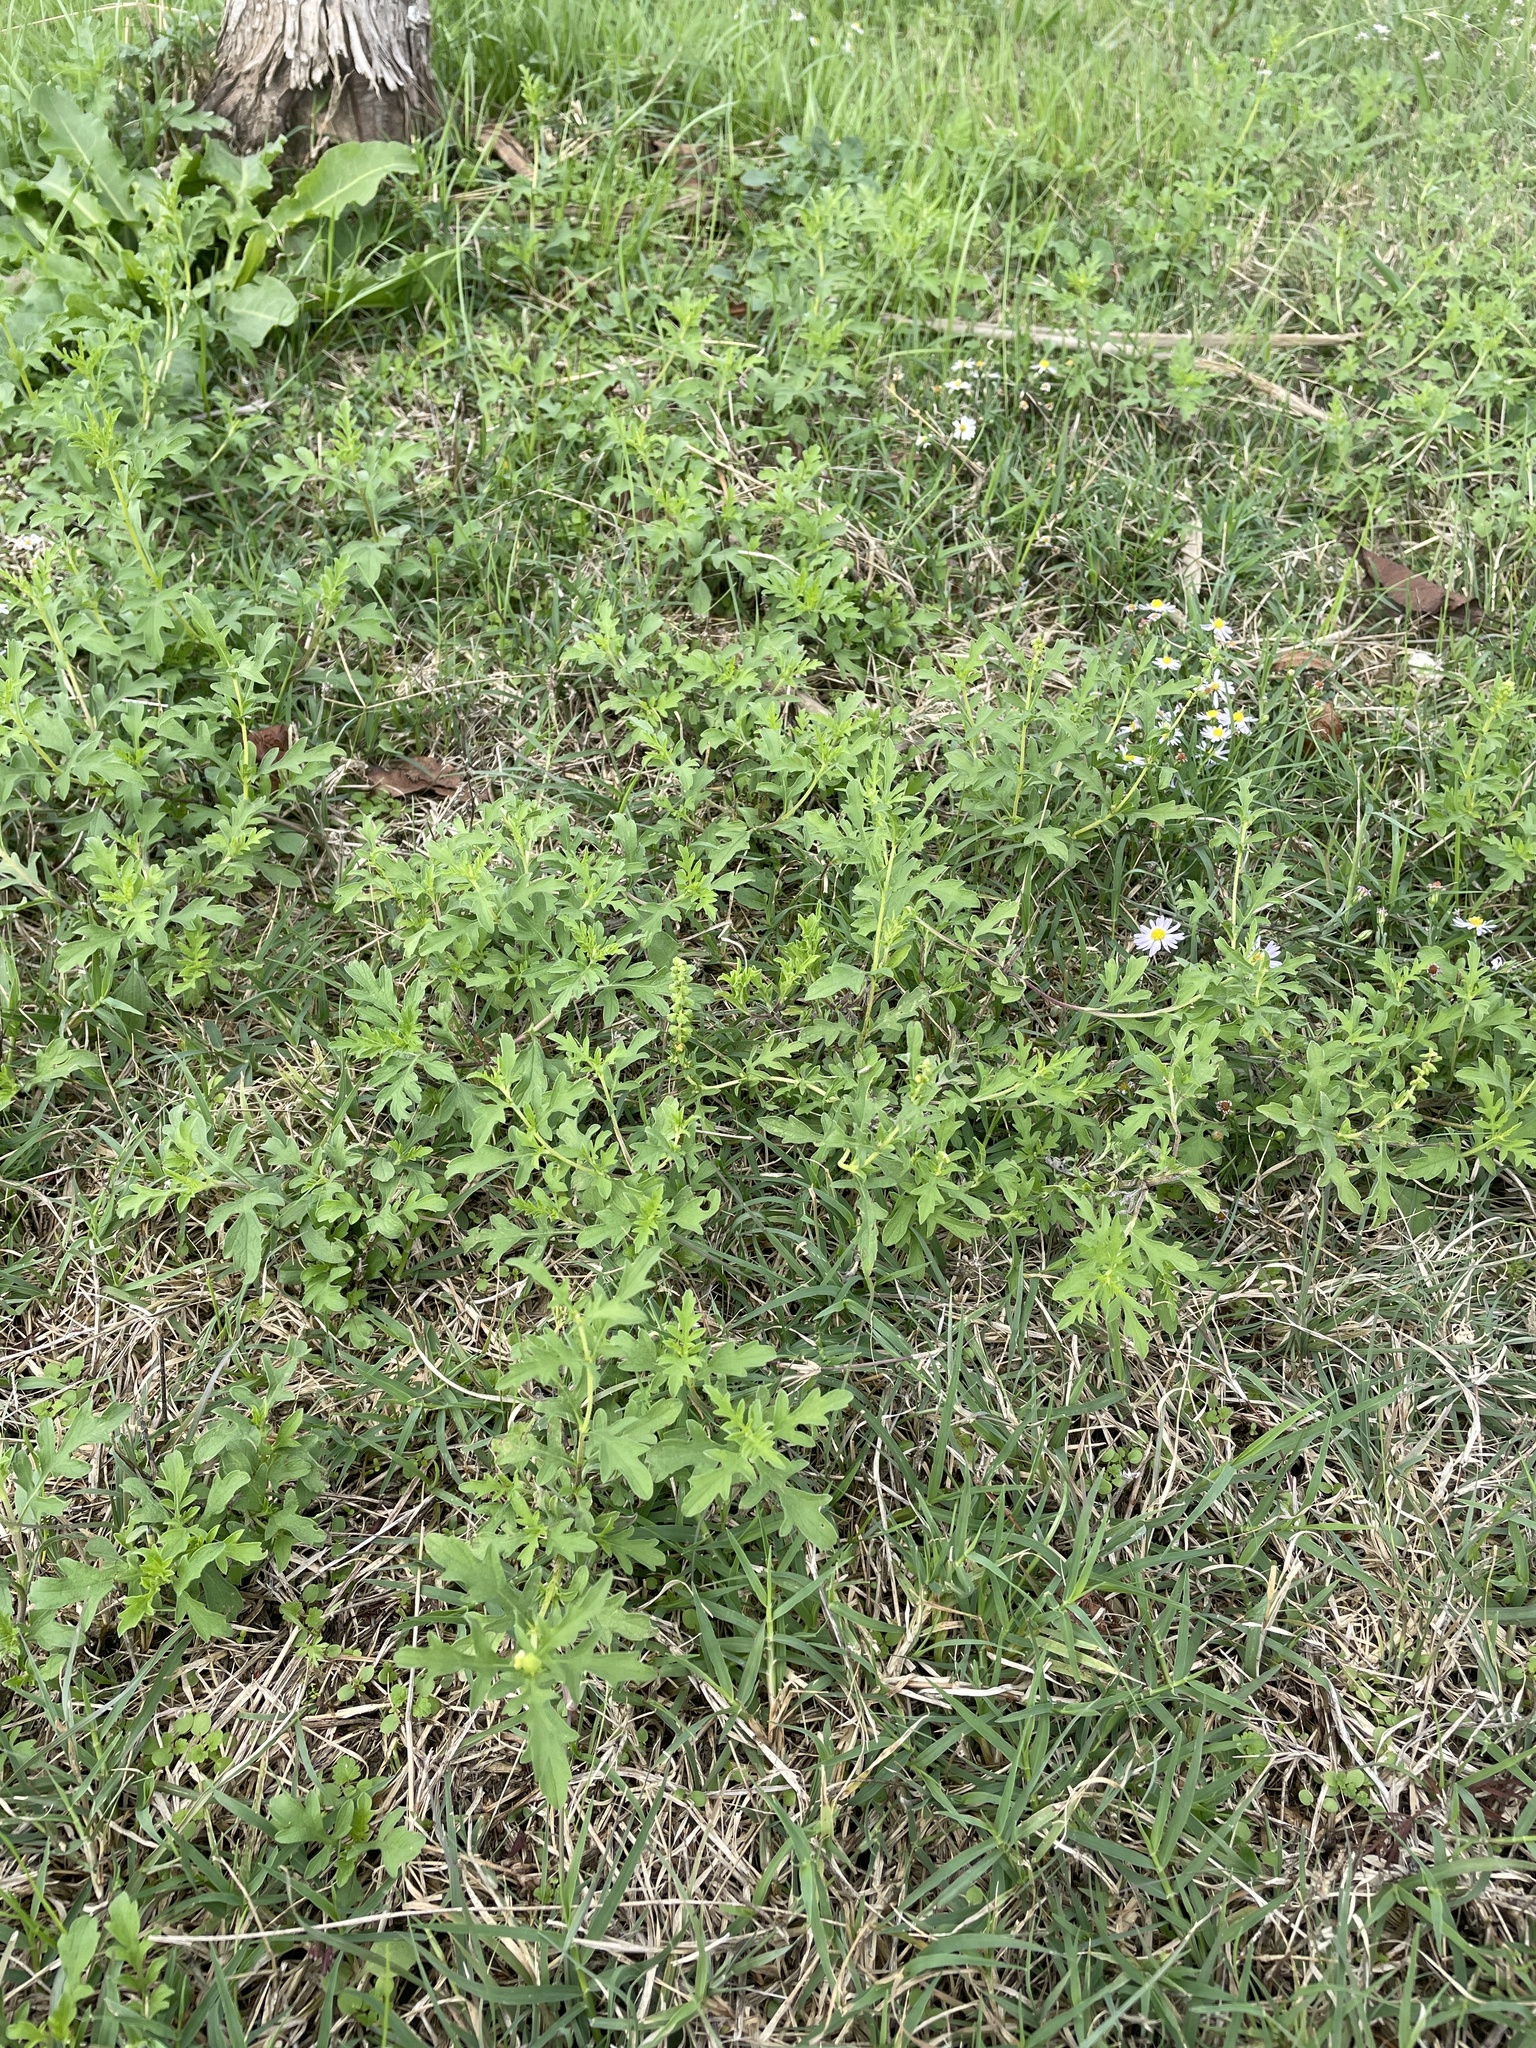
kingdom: Plantae
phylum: Tracheophyta
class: Magnoliopsida
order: Asterales
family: Asteraceae
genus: Ambrosia
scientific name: Ambrosia psilostachya
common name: Perennial ragweed
